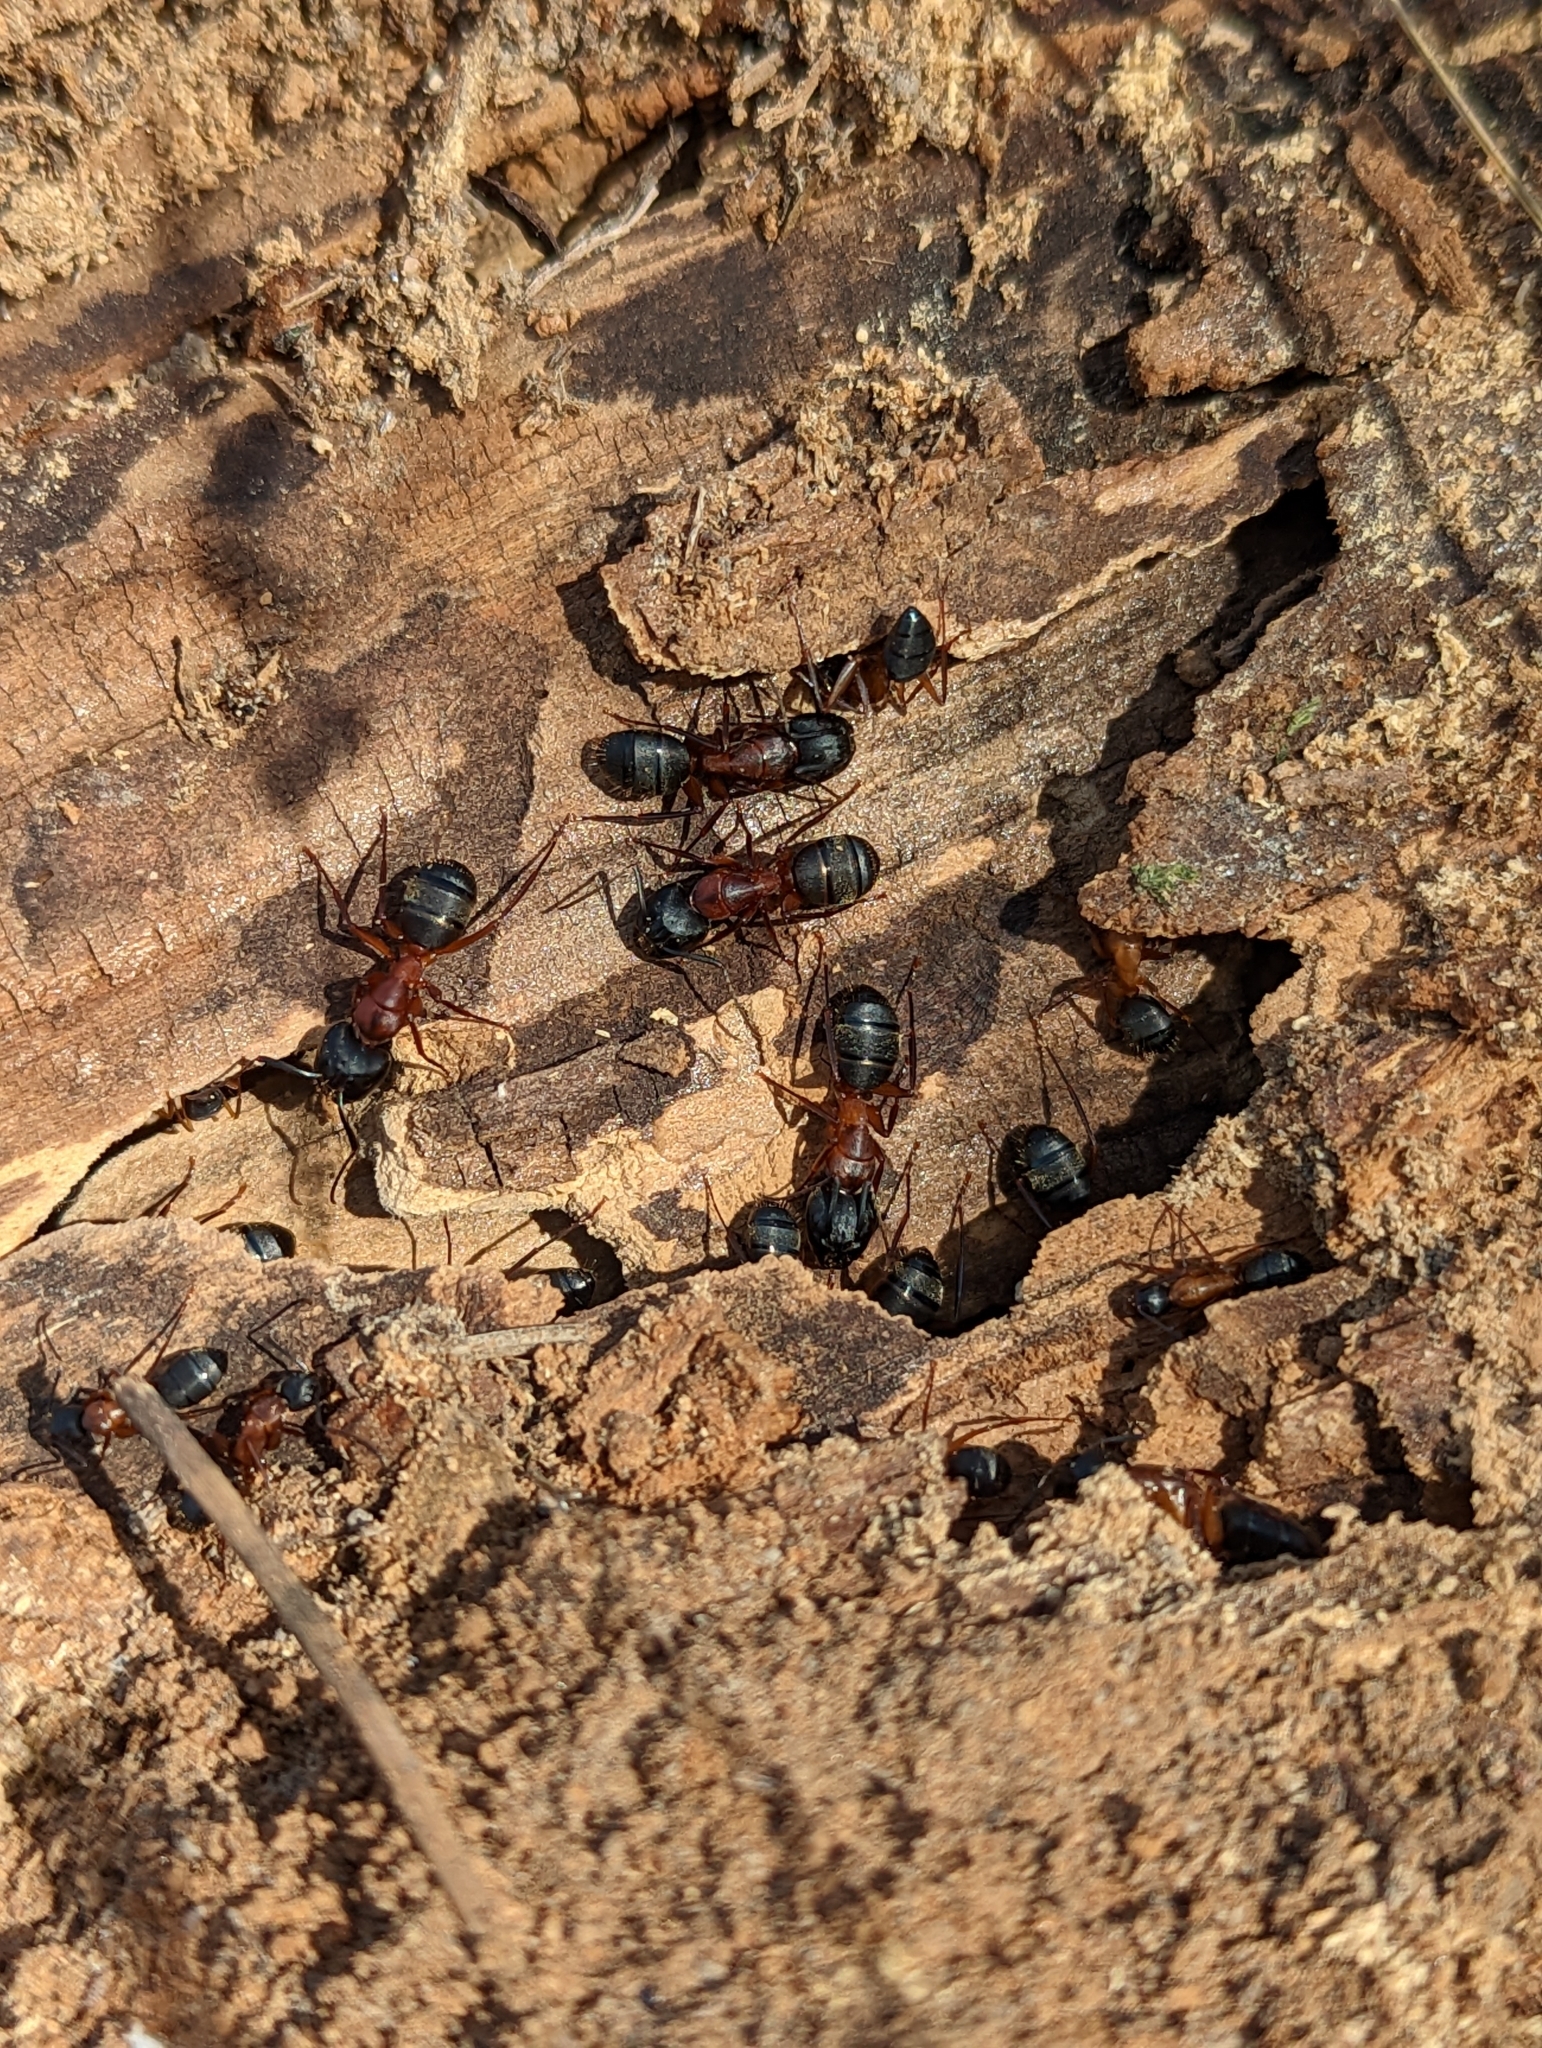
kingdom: Animalia
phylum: Arthropoda
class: Insecta
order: Hymenoptera
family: Formicidae
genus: Camponotus
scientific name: Camponotus vicinus
